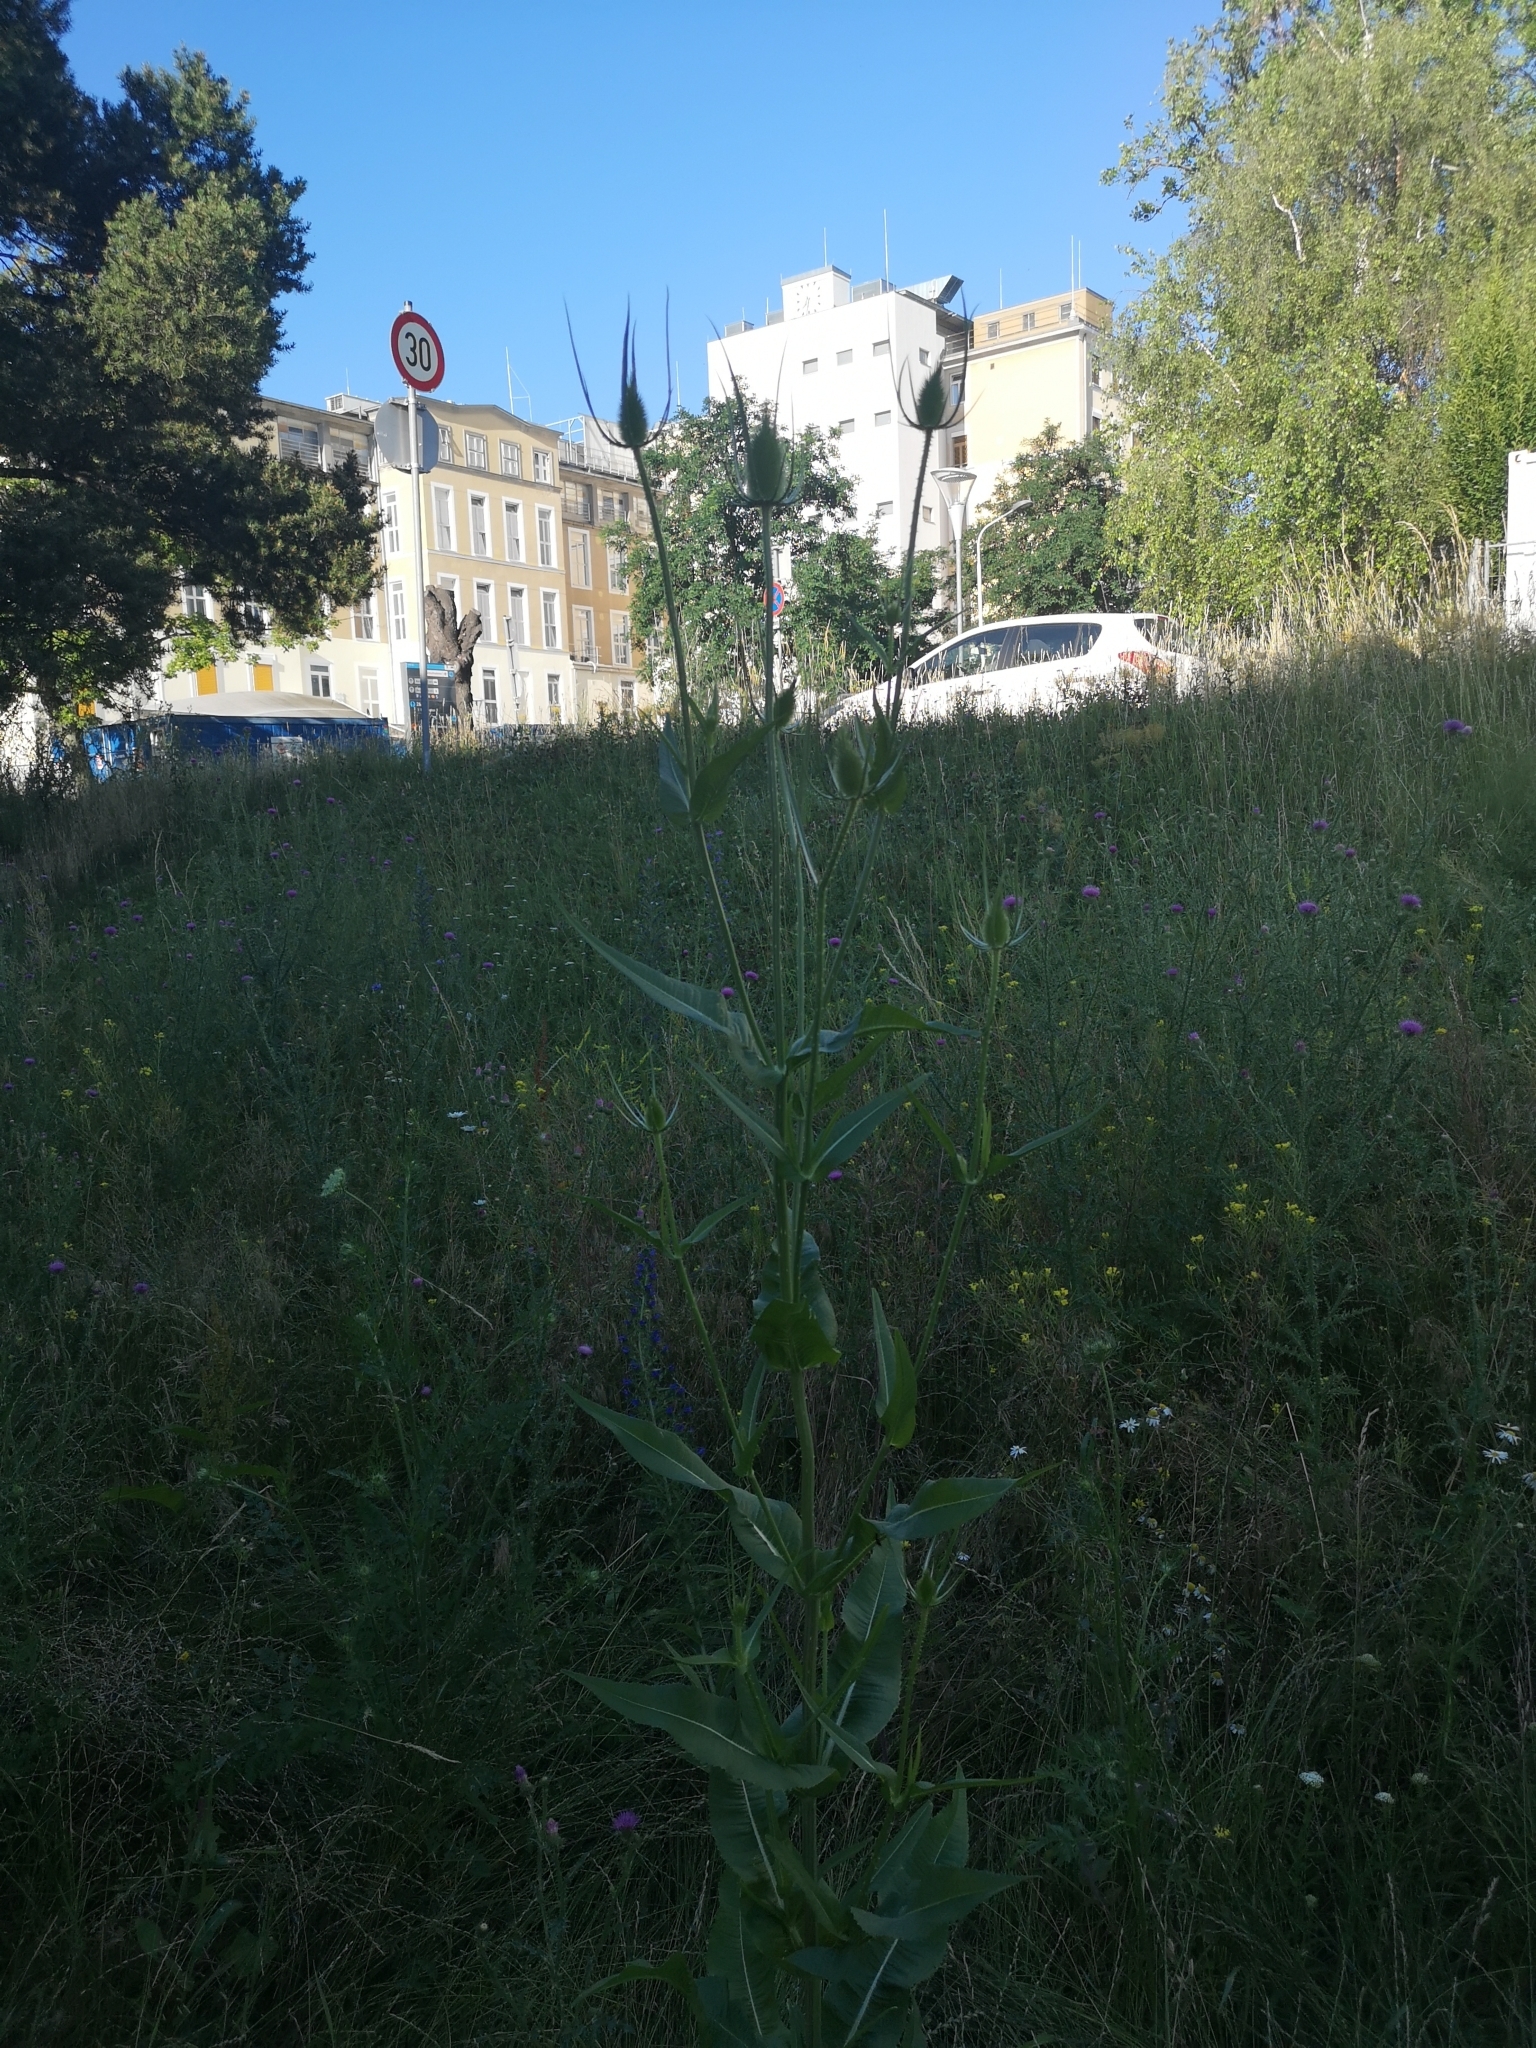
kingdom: Plantae
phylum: Tracheophyta
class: Magnoliopsida
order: Dipsacales
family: Caprifoliaceae
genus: Dipsacus
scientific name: Dipsacus fullonum
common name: Teasel
